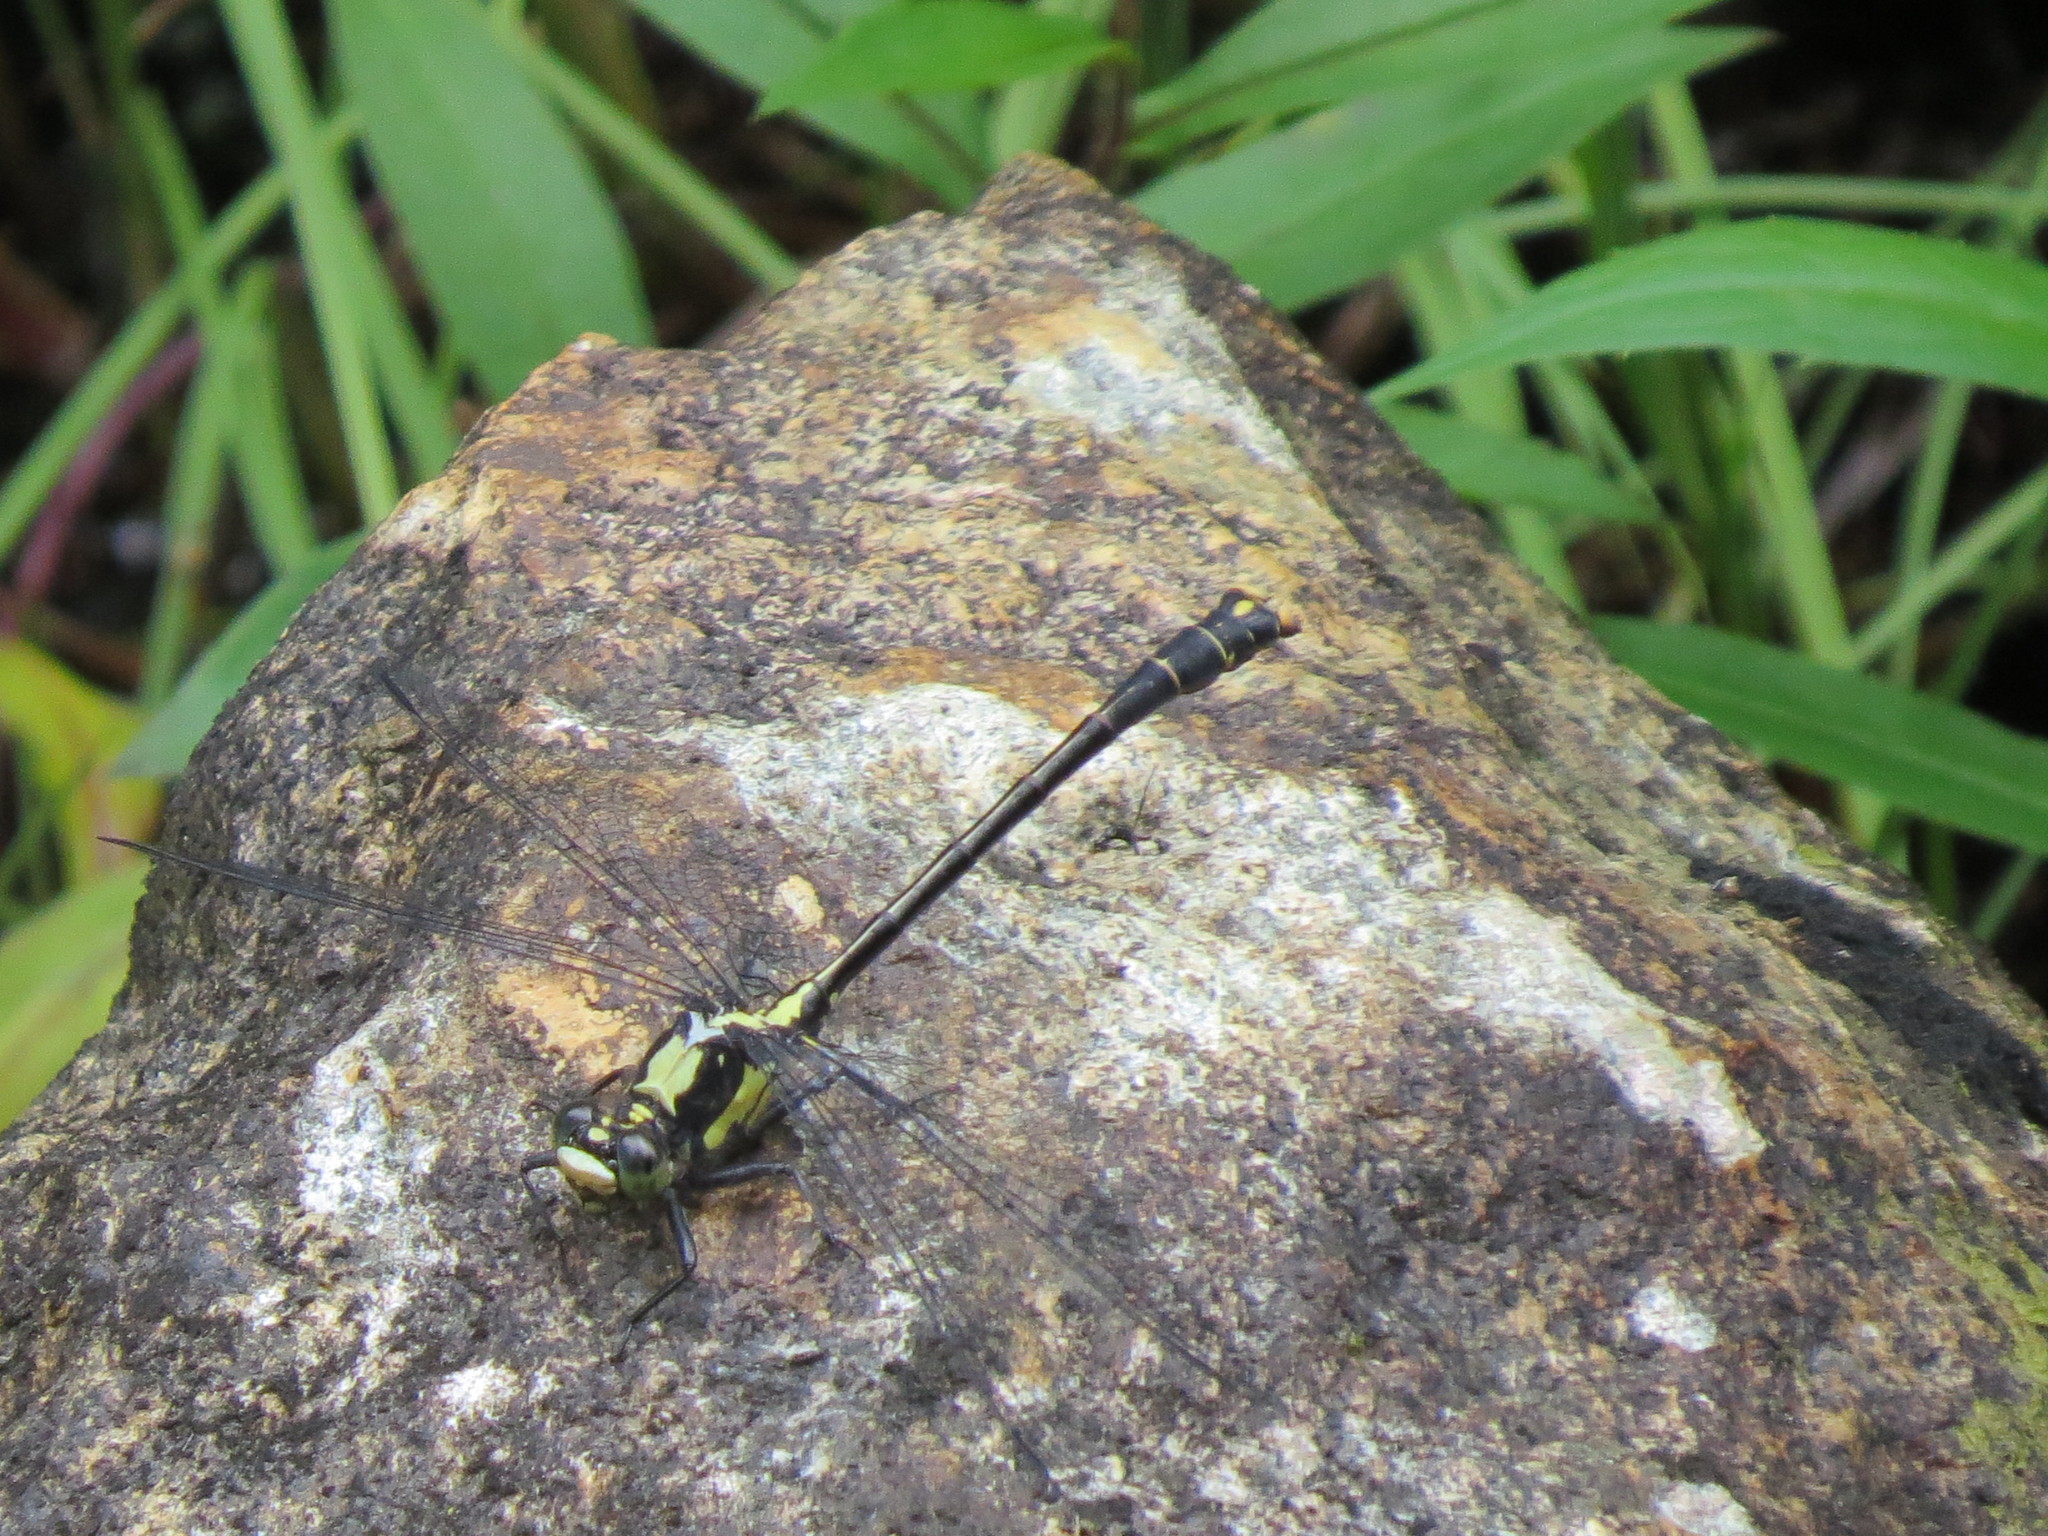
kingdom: Animalia
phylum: Arthropoda
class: Insecta
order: Odonata
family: Gomphidae
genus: Octogomphus
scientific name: Octogomphus specularis
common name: Grappletail
